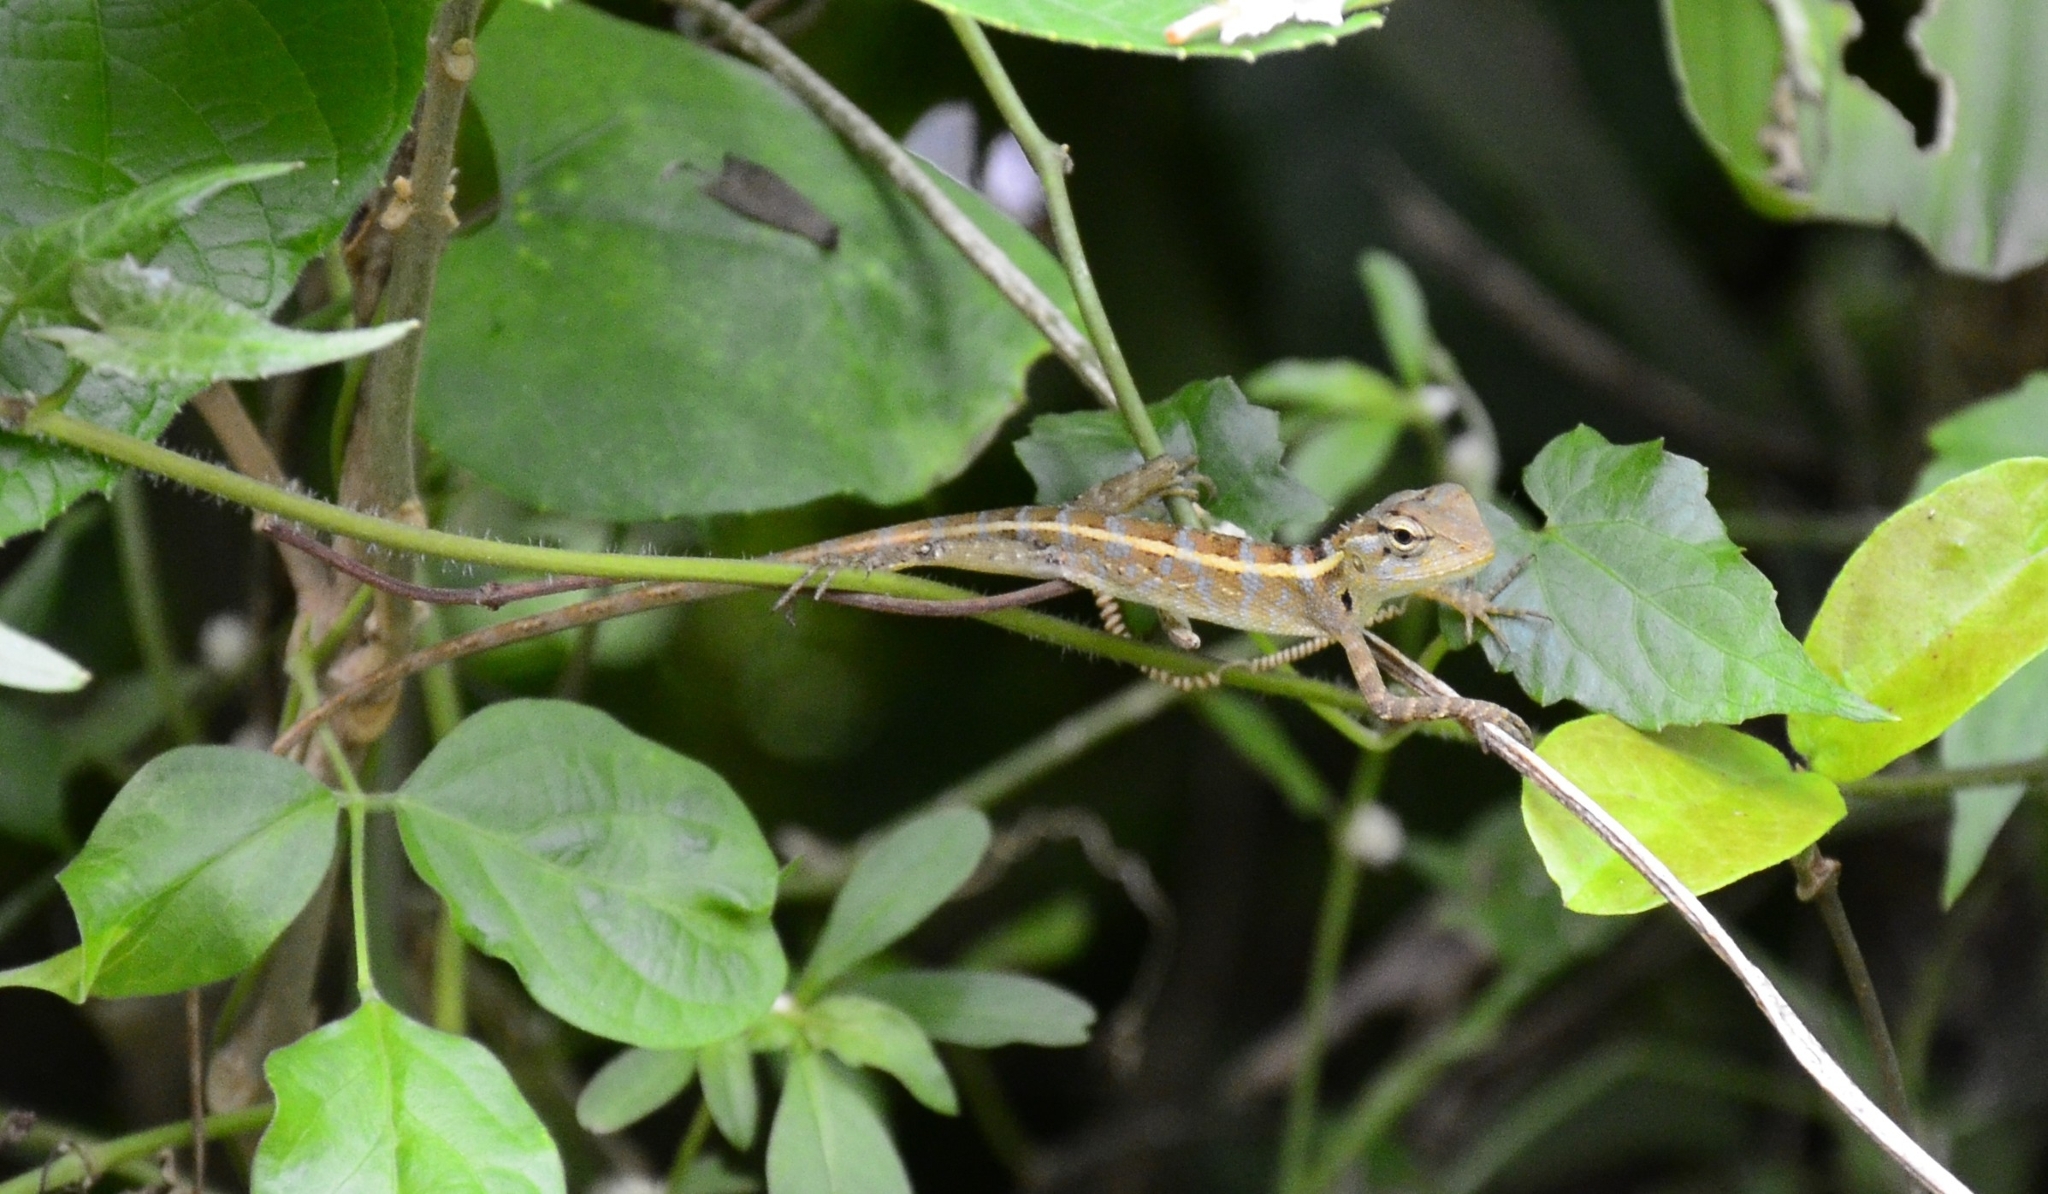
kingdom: Animalia
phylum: Chordata
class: Squamata
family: Agamidae
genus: Calotes
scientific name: Calotes versicolor
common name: Oriental garden lizard
